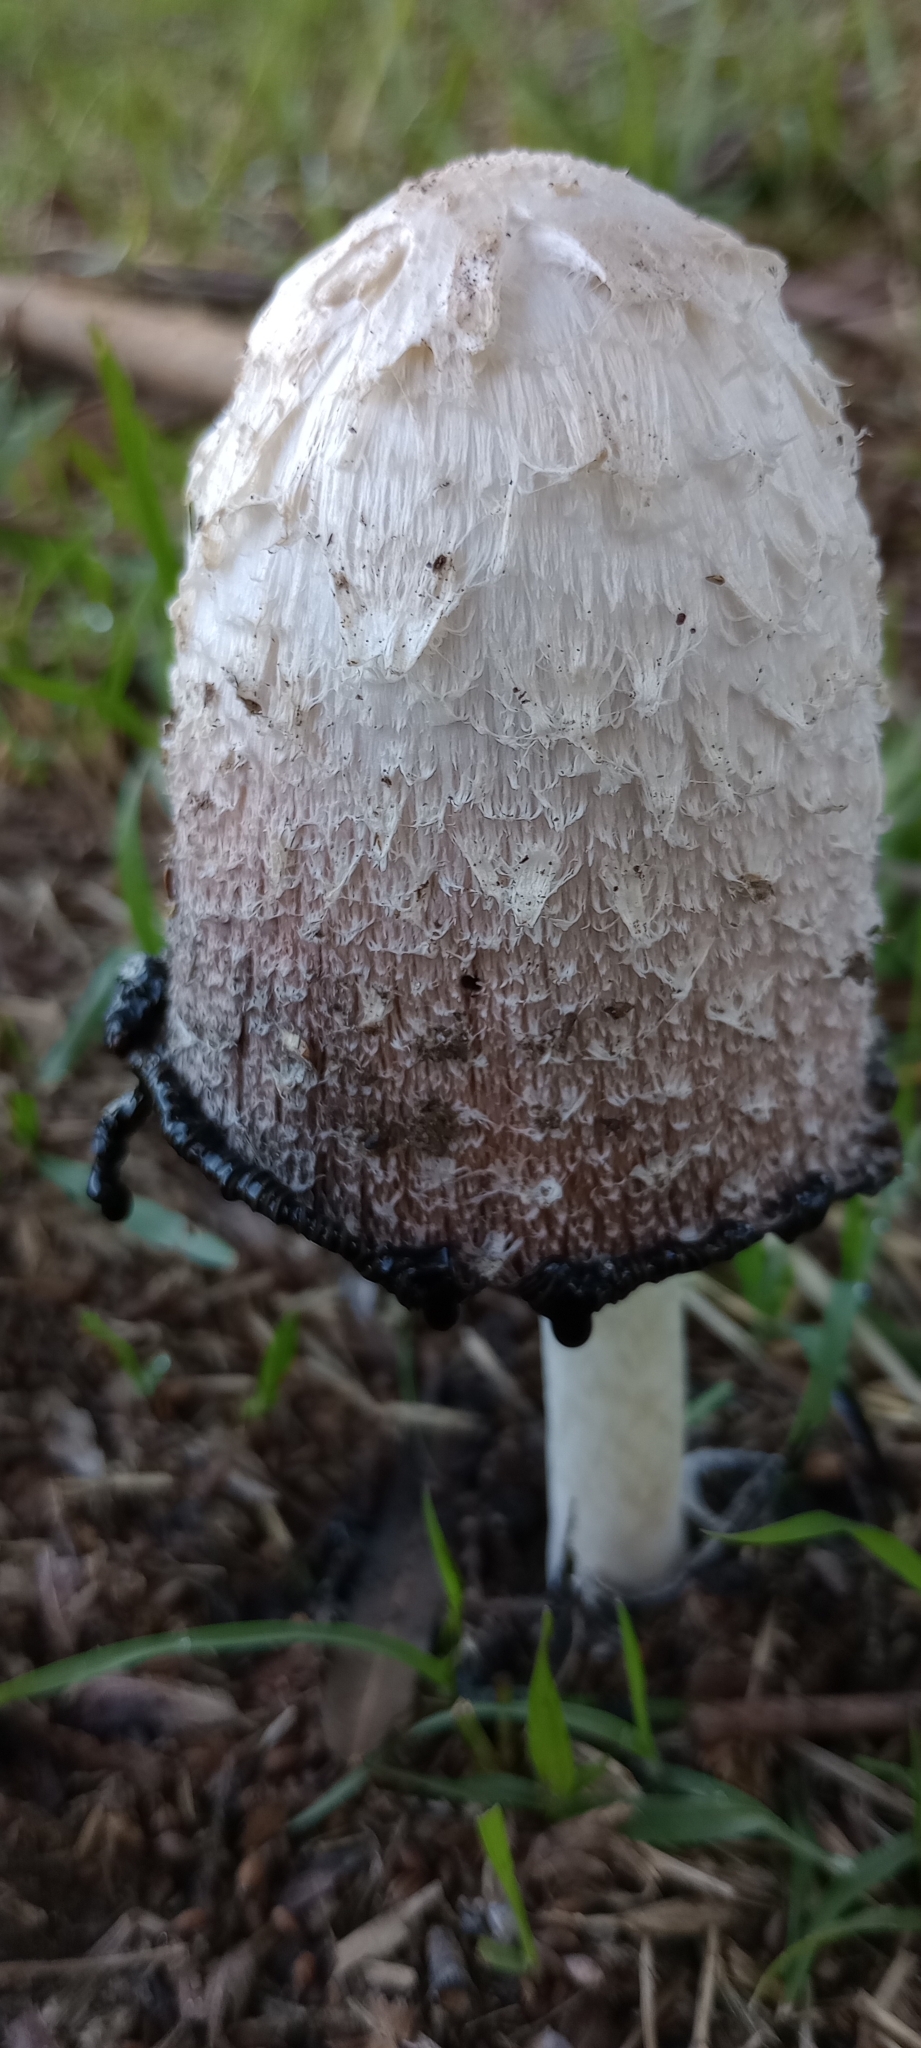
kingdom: Fungi
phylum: Basidiomycota
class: Agaricomycetes
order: Agaricales
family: Agaricaceae
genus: Coprinus
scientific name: Coprinus comatus
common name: Lawyer's wig
